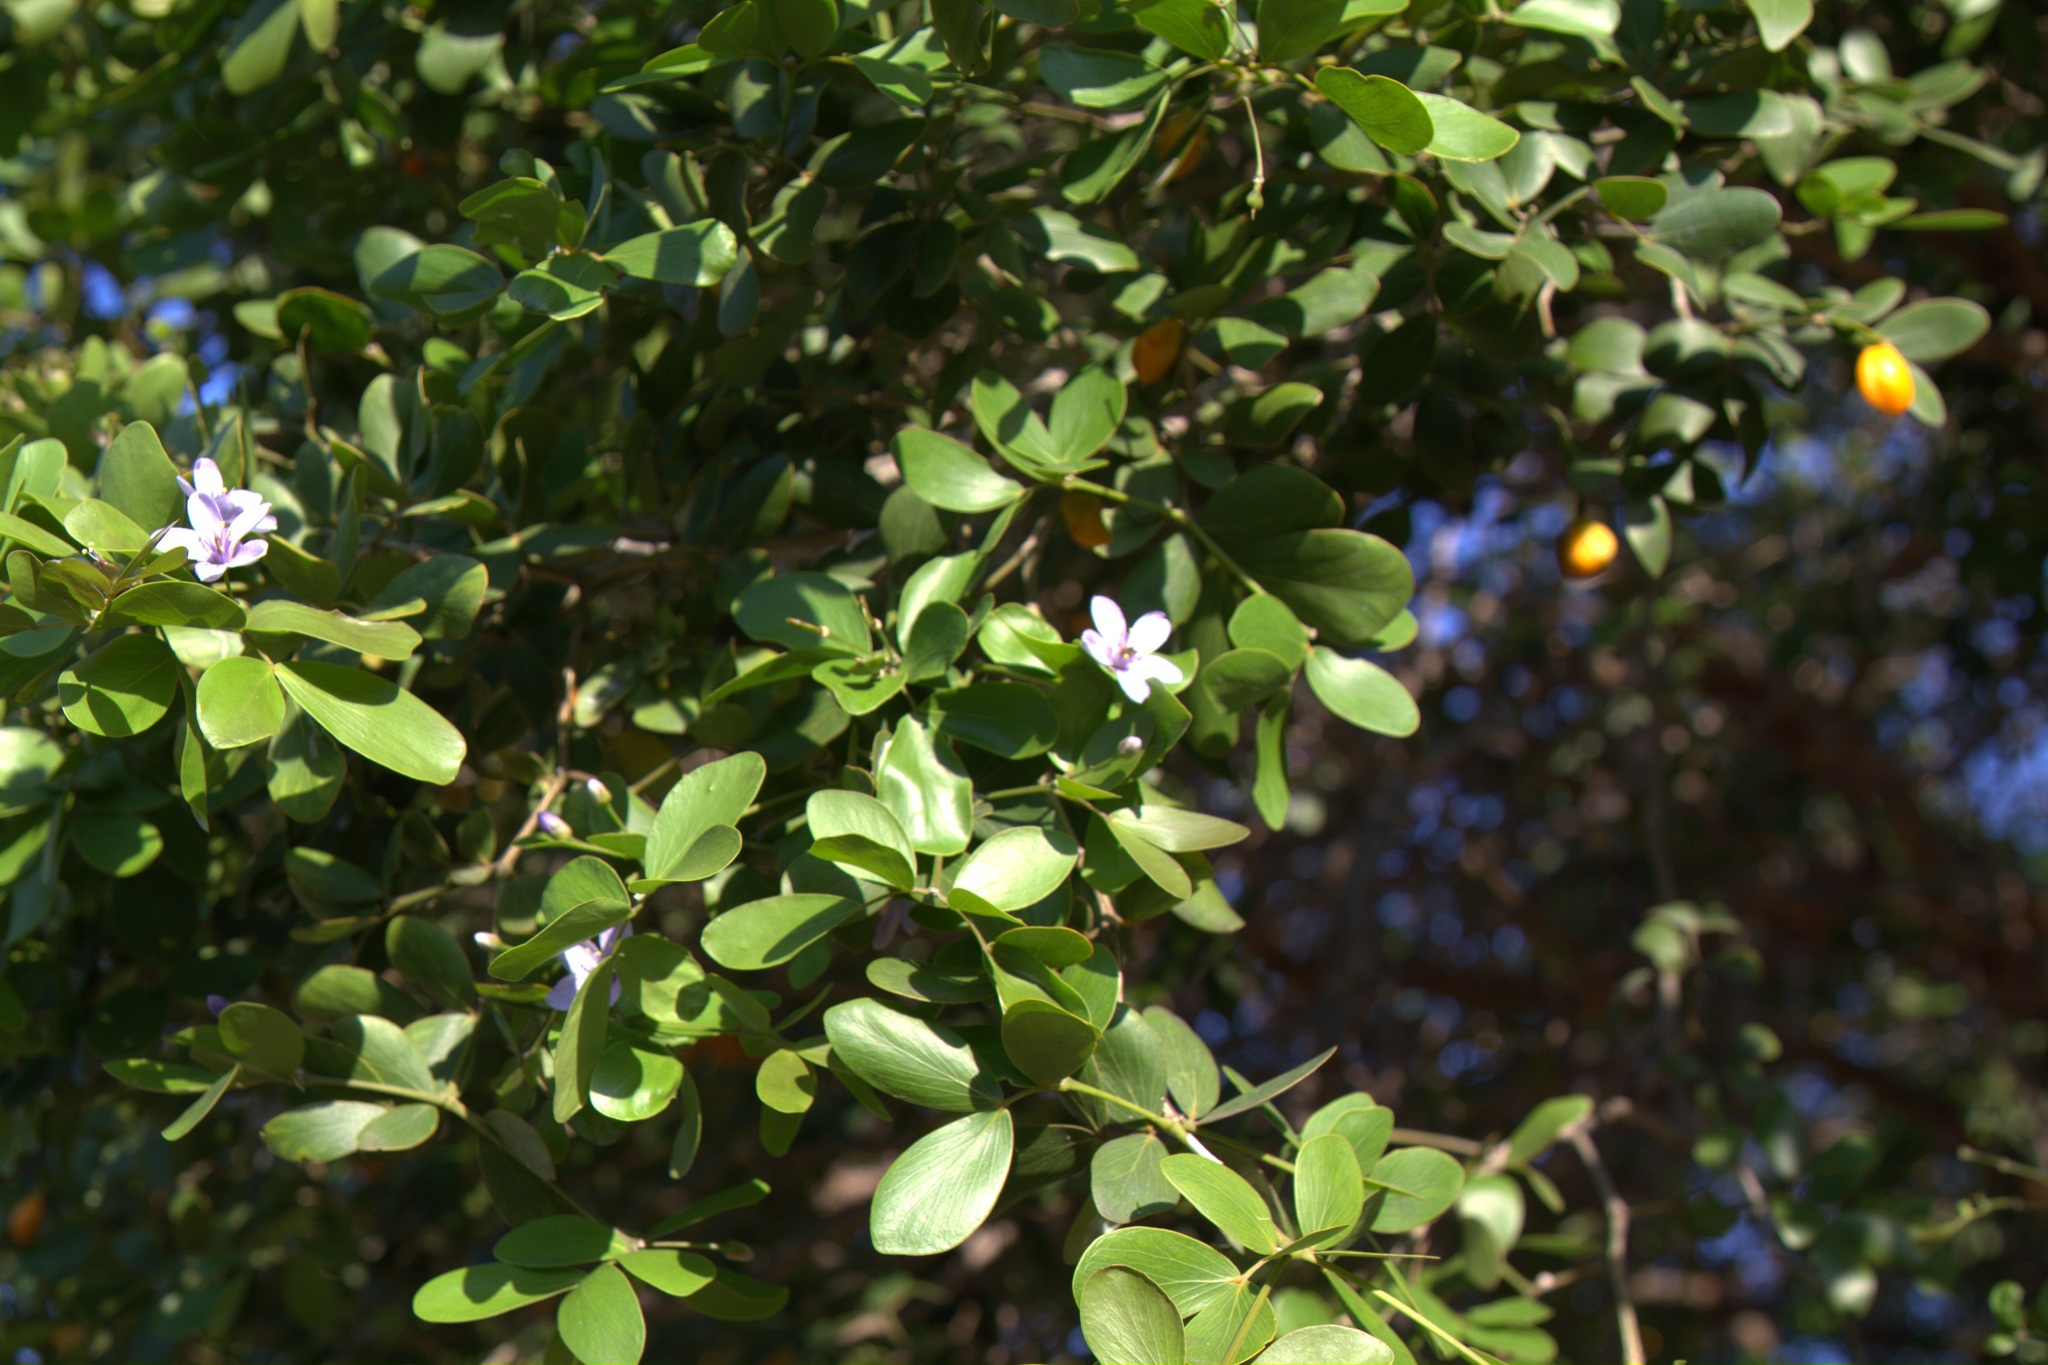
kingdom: Plantae
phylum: Tracheophyta
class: Magnoliopsida
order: Zygophyllales
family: Zygophyllaceae
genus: Guaiacum
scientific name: Guaiacum sanctum
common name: Holywood
